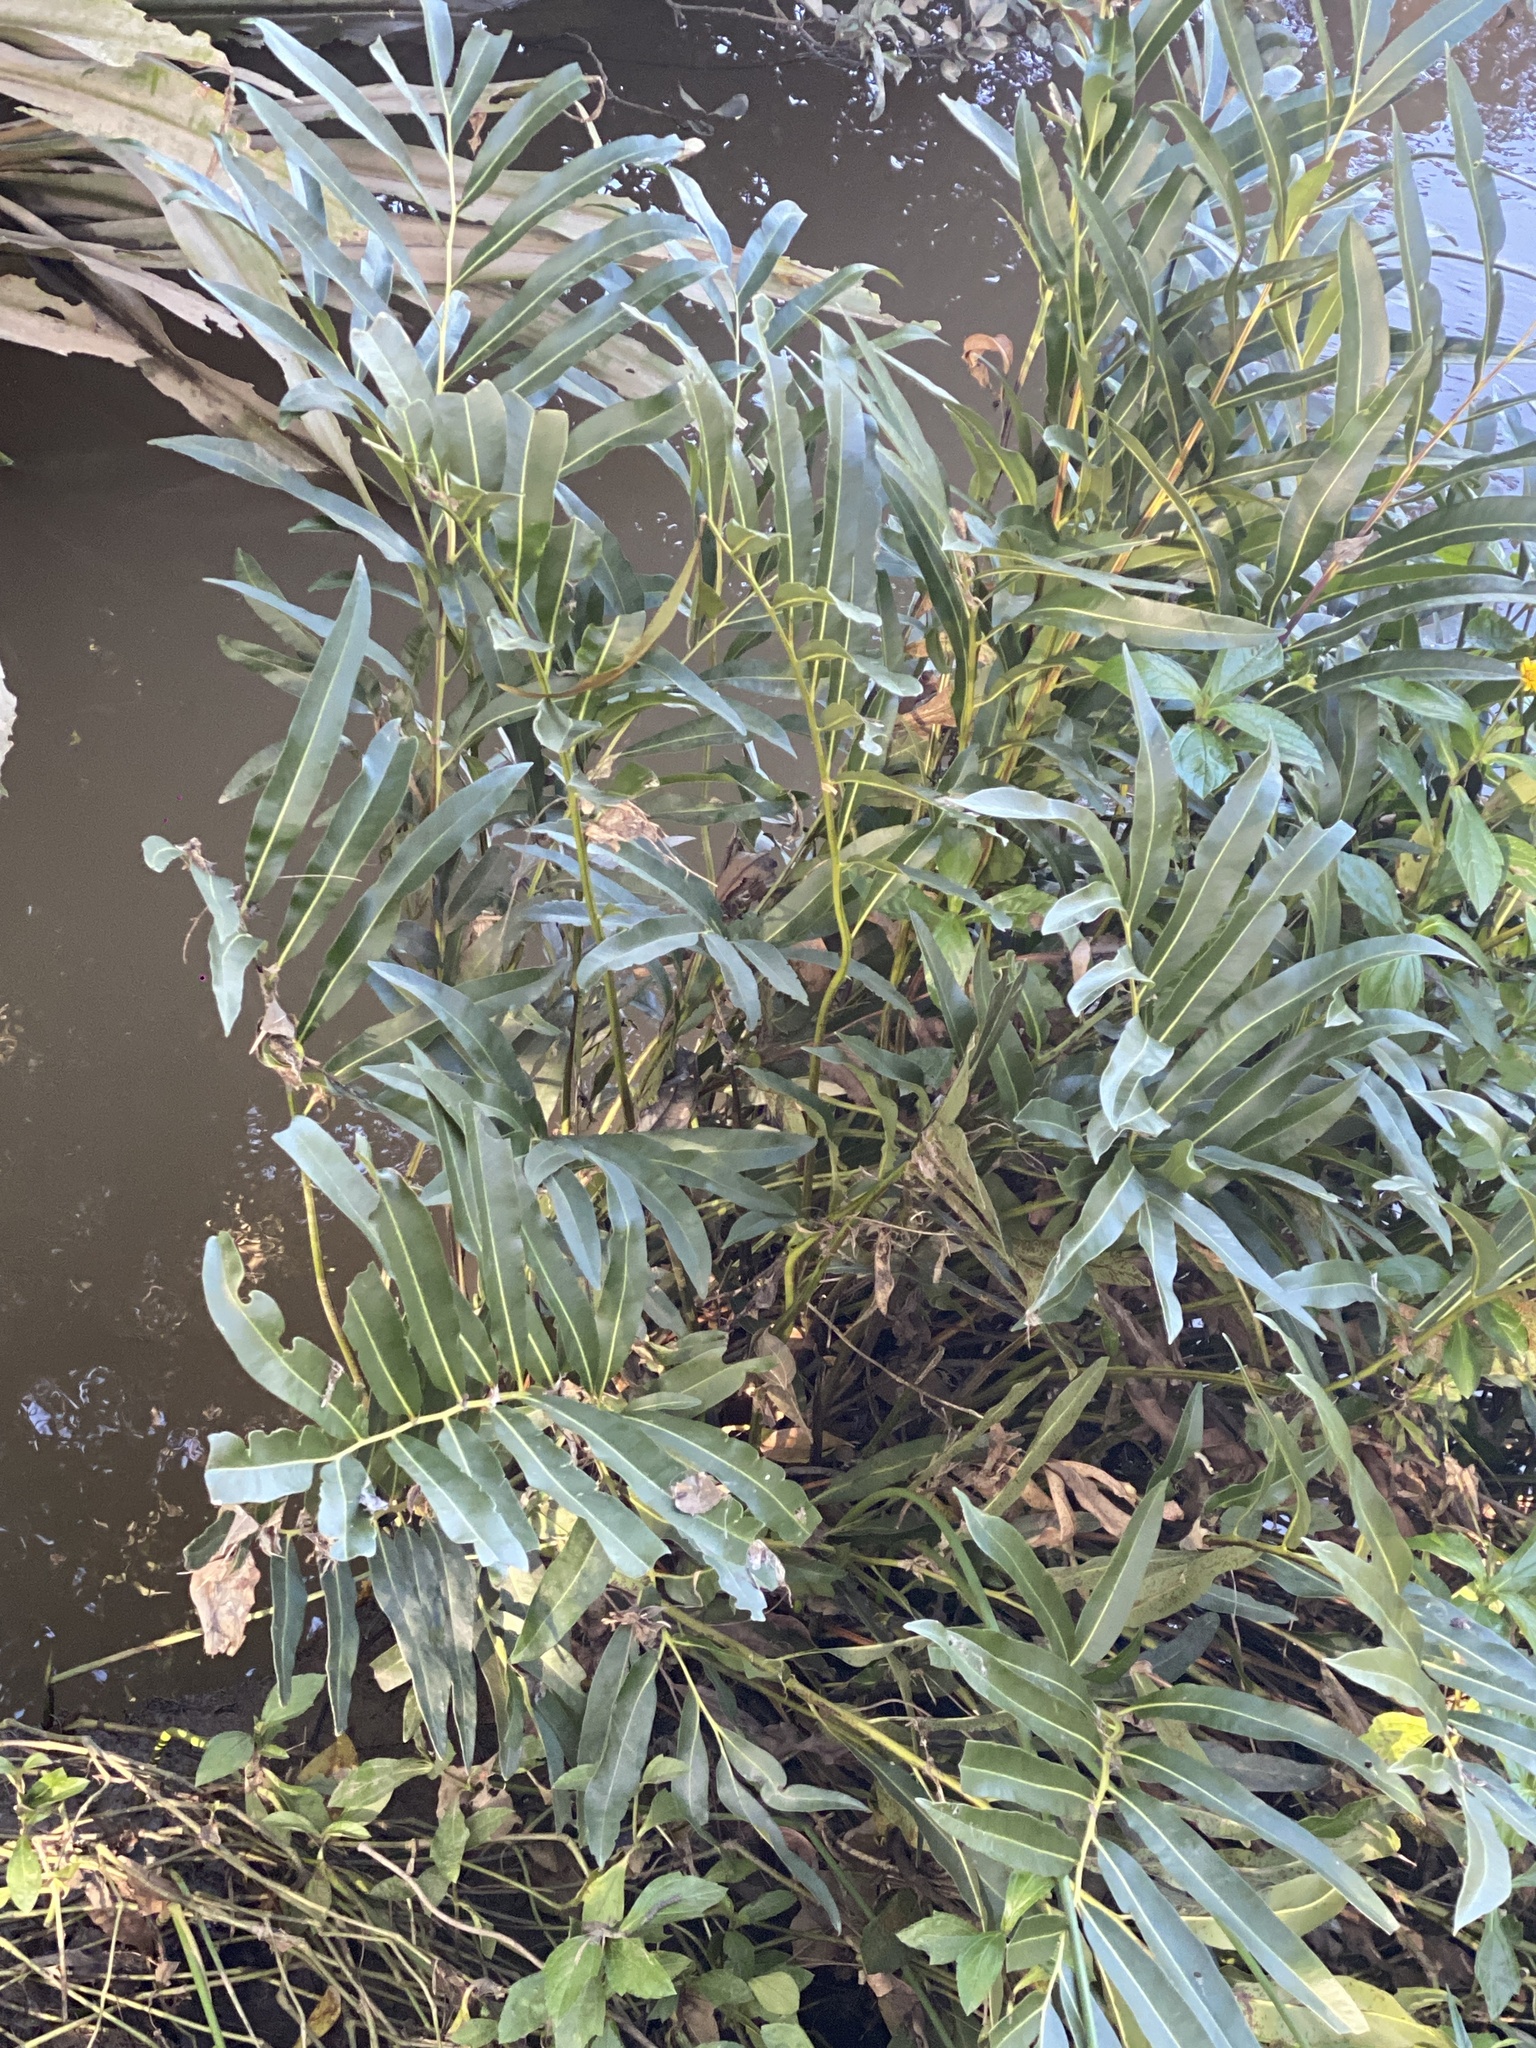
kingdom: Plantae
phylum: Tracheophyta
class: Polypodiopsida
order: Polypodiales
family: Pteridaceae
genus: Acrostichum
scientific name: Acrostichum speciosum
